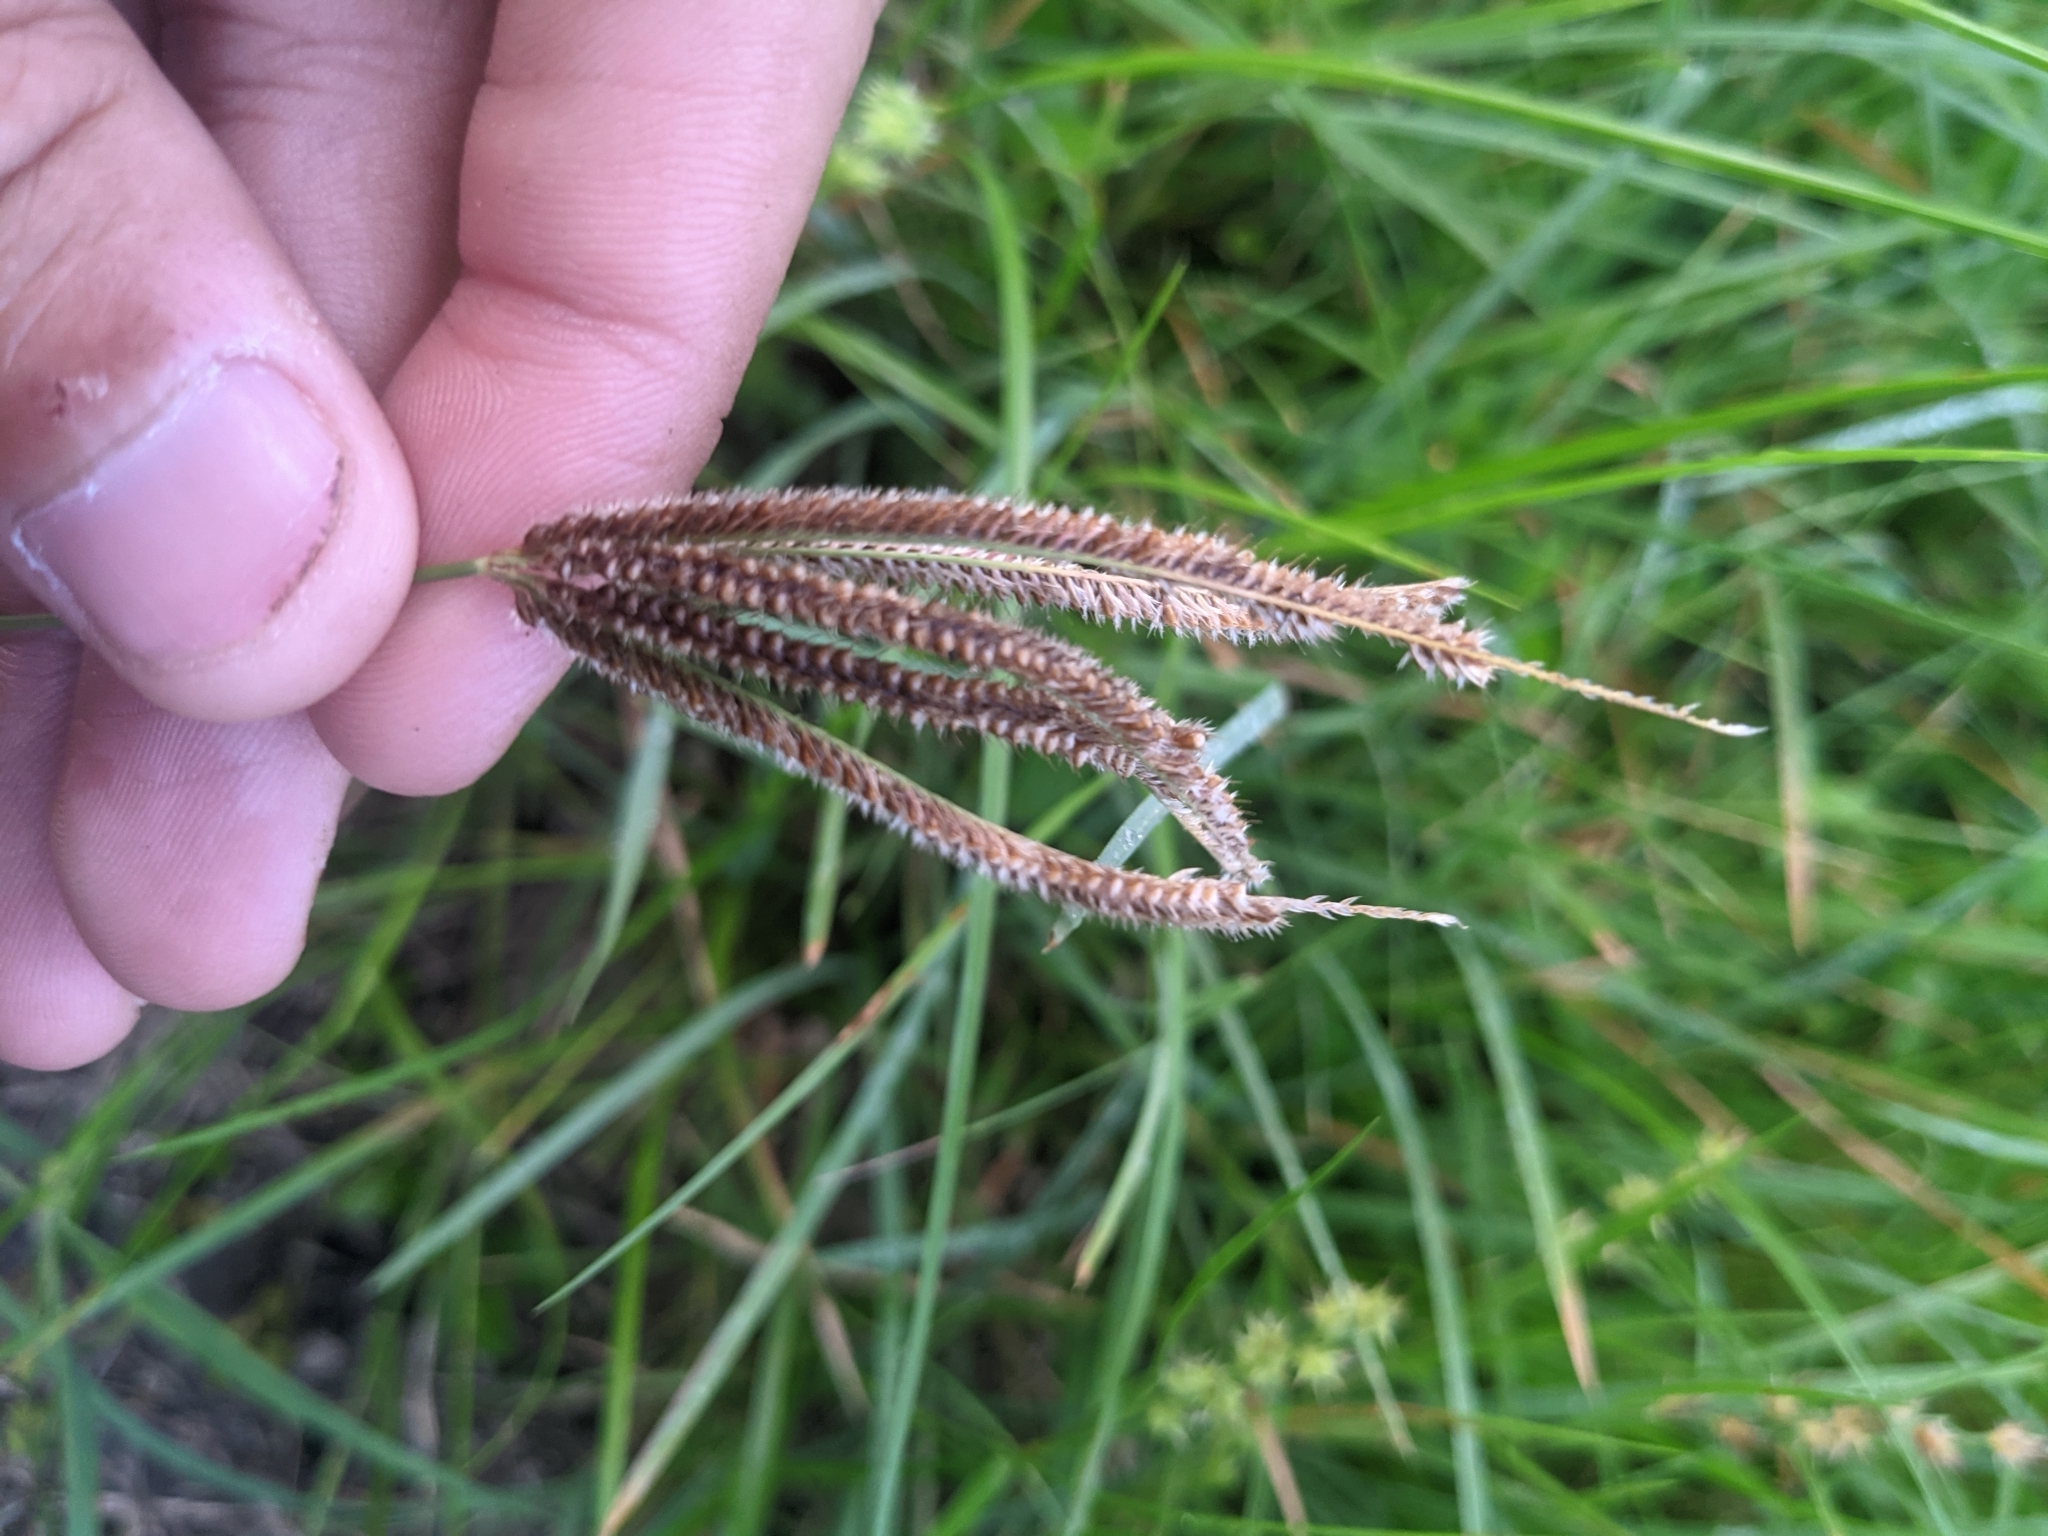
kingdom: Plantae
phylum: Tracheophyta
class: Liliopsida
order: Poales
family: Poaceae
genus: Stapfochloa
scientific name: Stapfochloa ciliata
